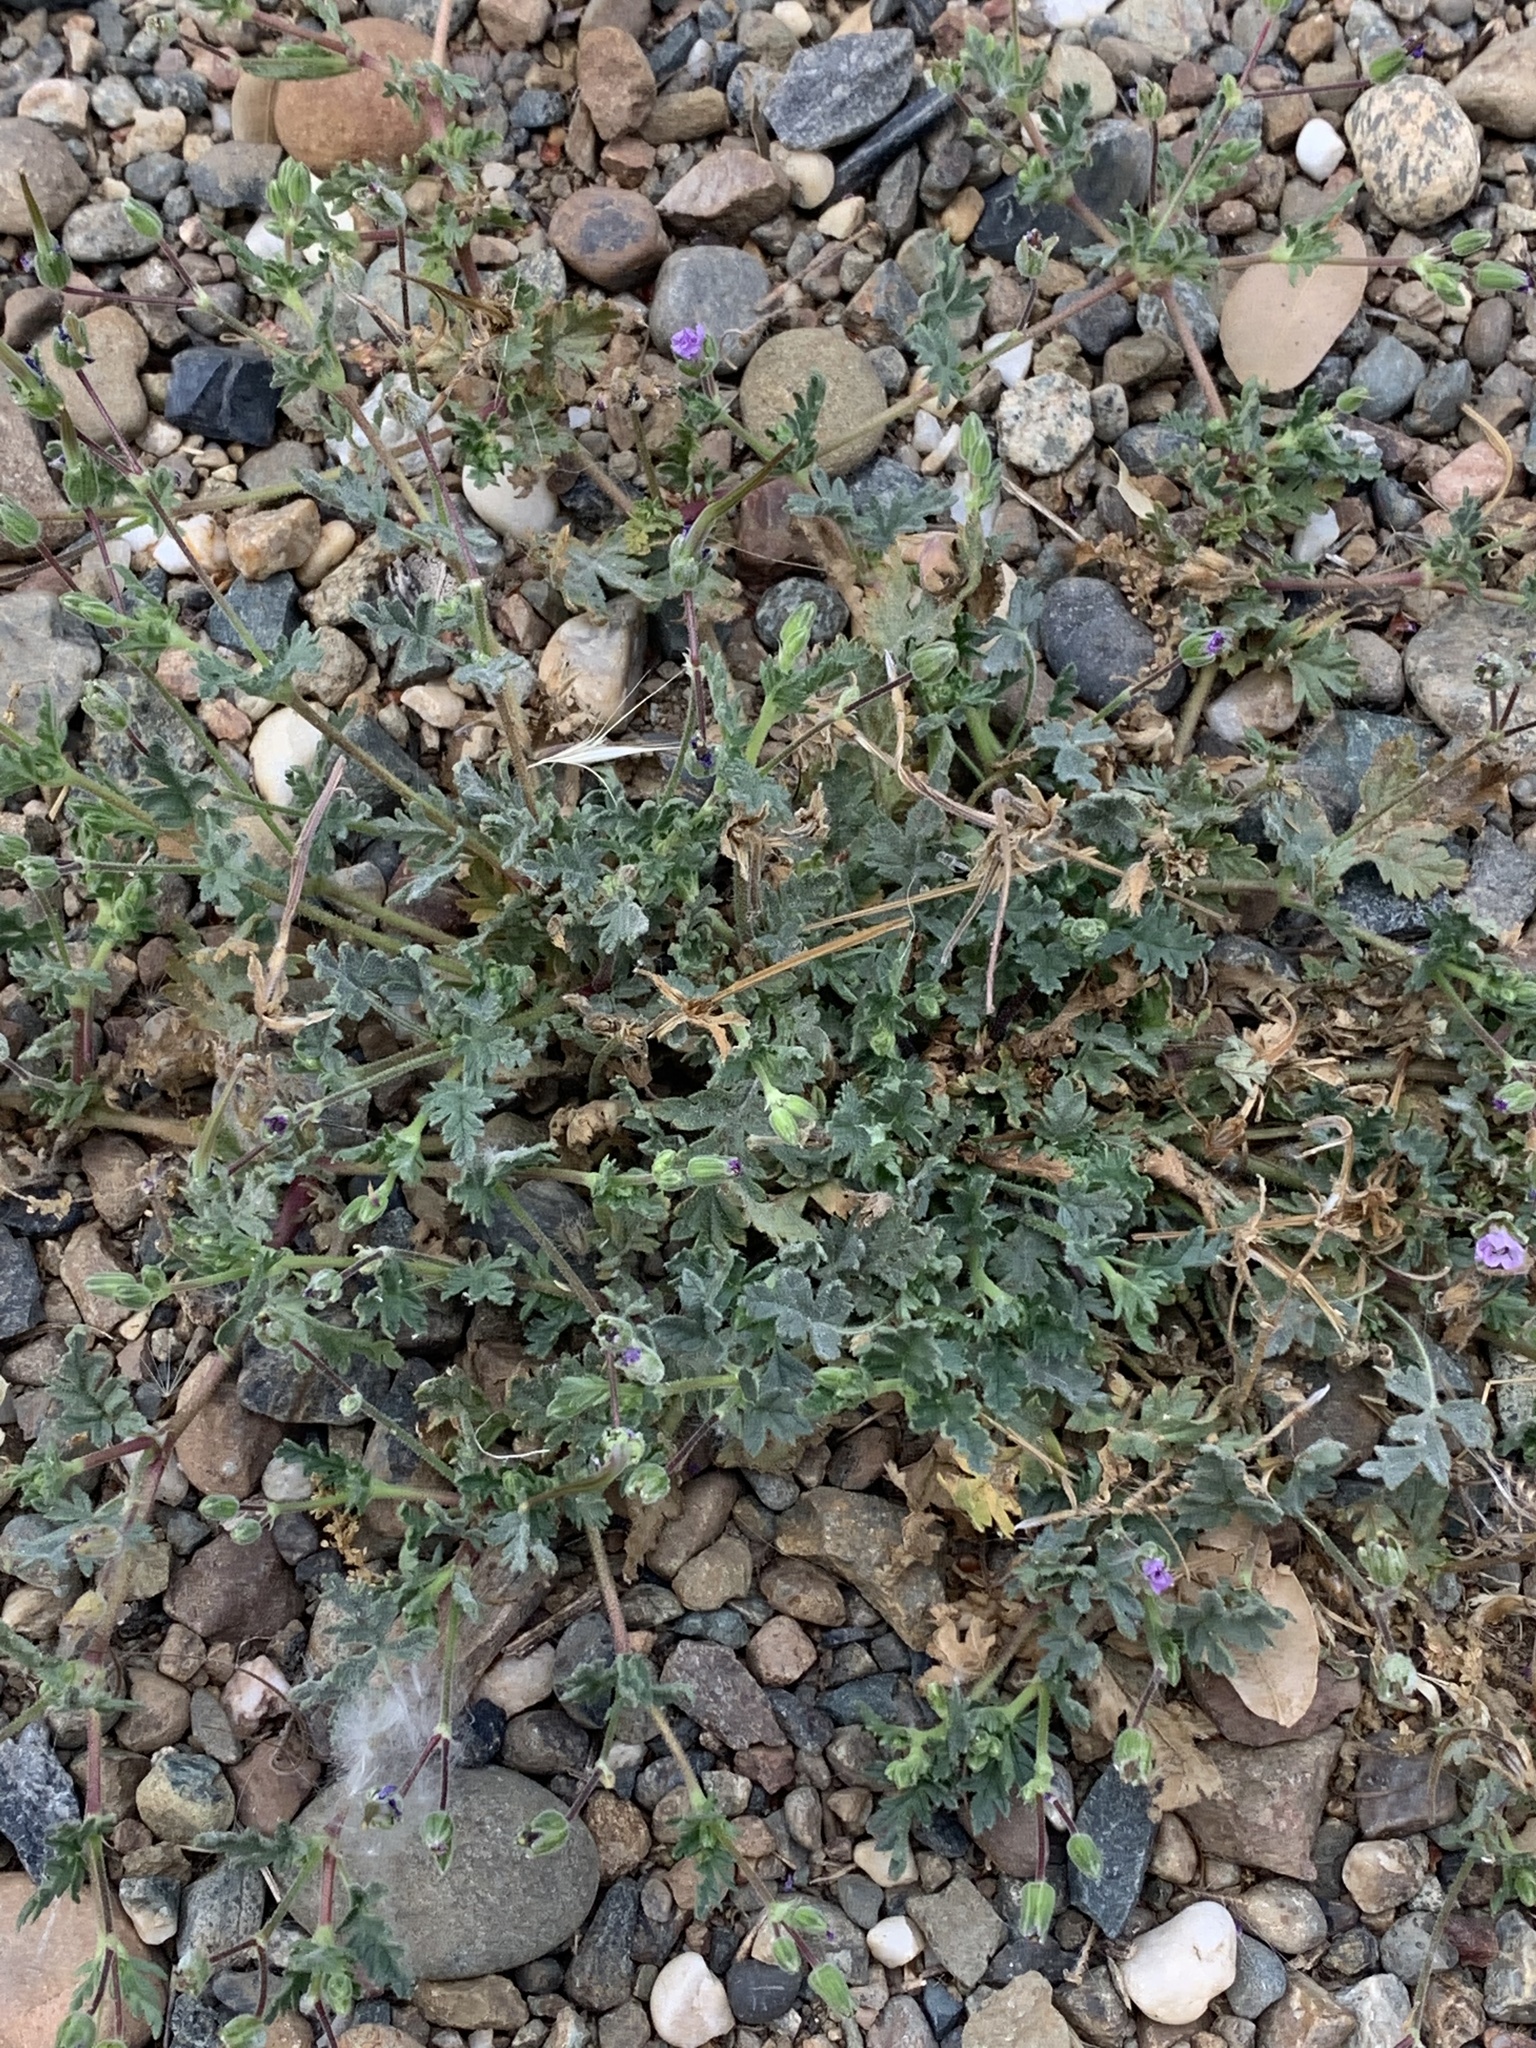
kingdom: Plantae
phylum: Tracheophyta
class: Magnoliopsida
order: Geraniales
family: Geraniaceae
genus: Erodium
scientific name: Erodium brachycarpum
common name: Hairy-pitted stork's-bill
